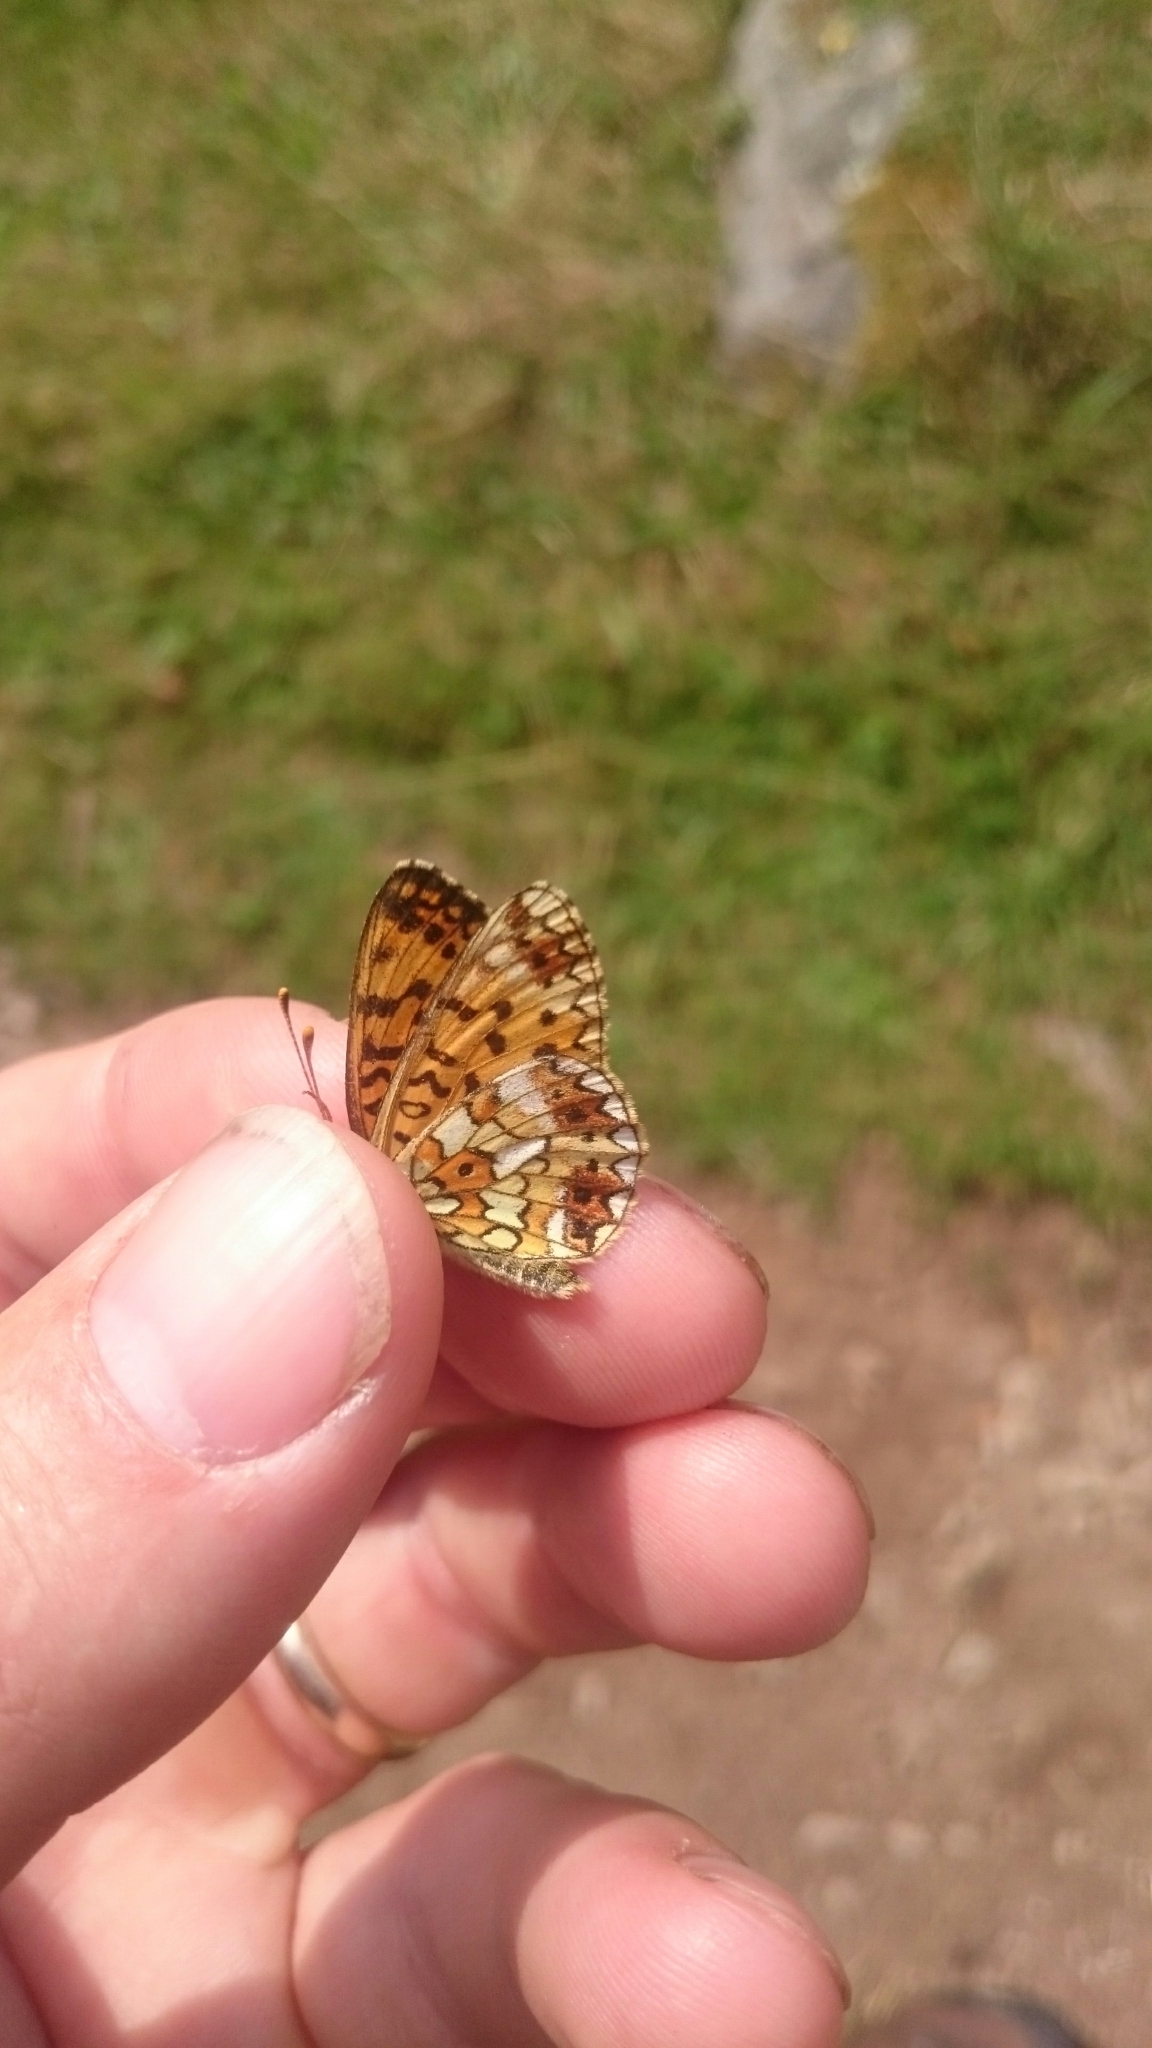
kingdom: Animalia
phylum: Arthropoda
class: Insecta
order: Lepidoptera
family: Nymphalidae
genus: Boloria
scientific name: Boloria selene
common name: Small pearl-bordered fritillary
